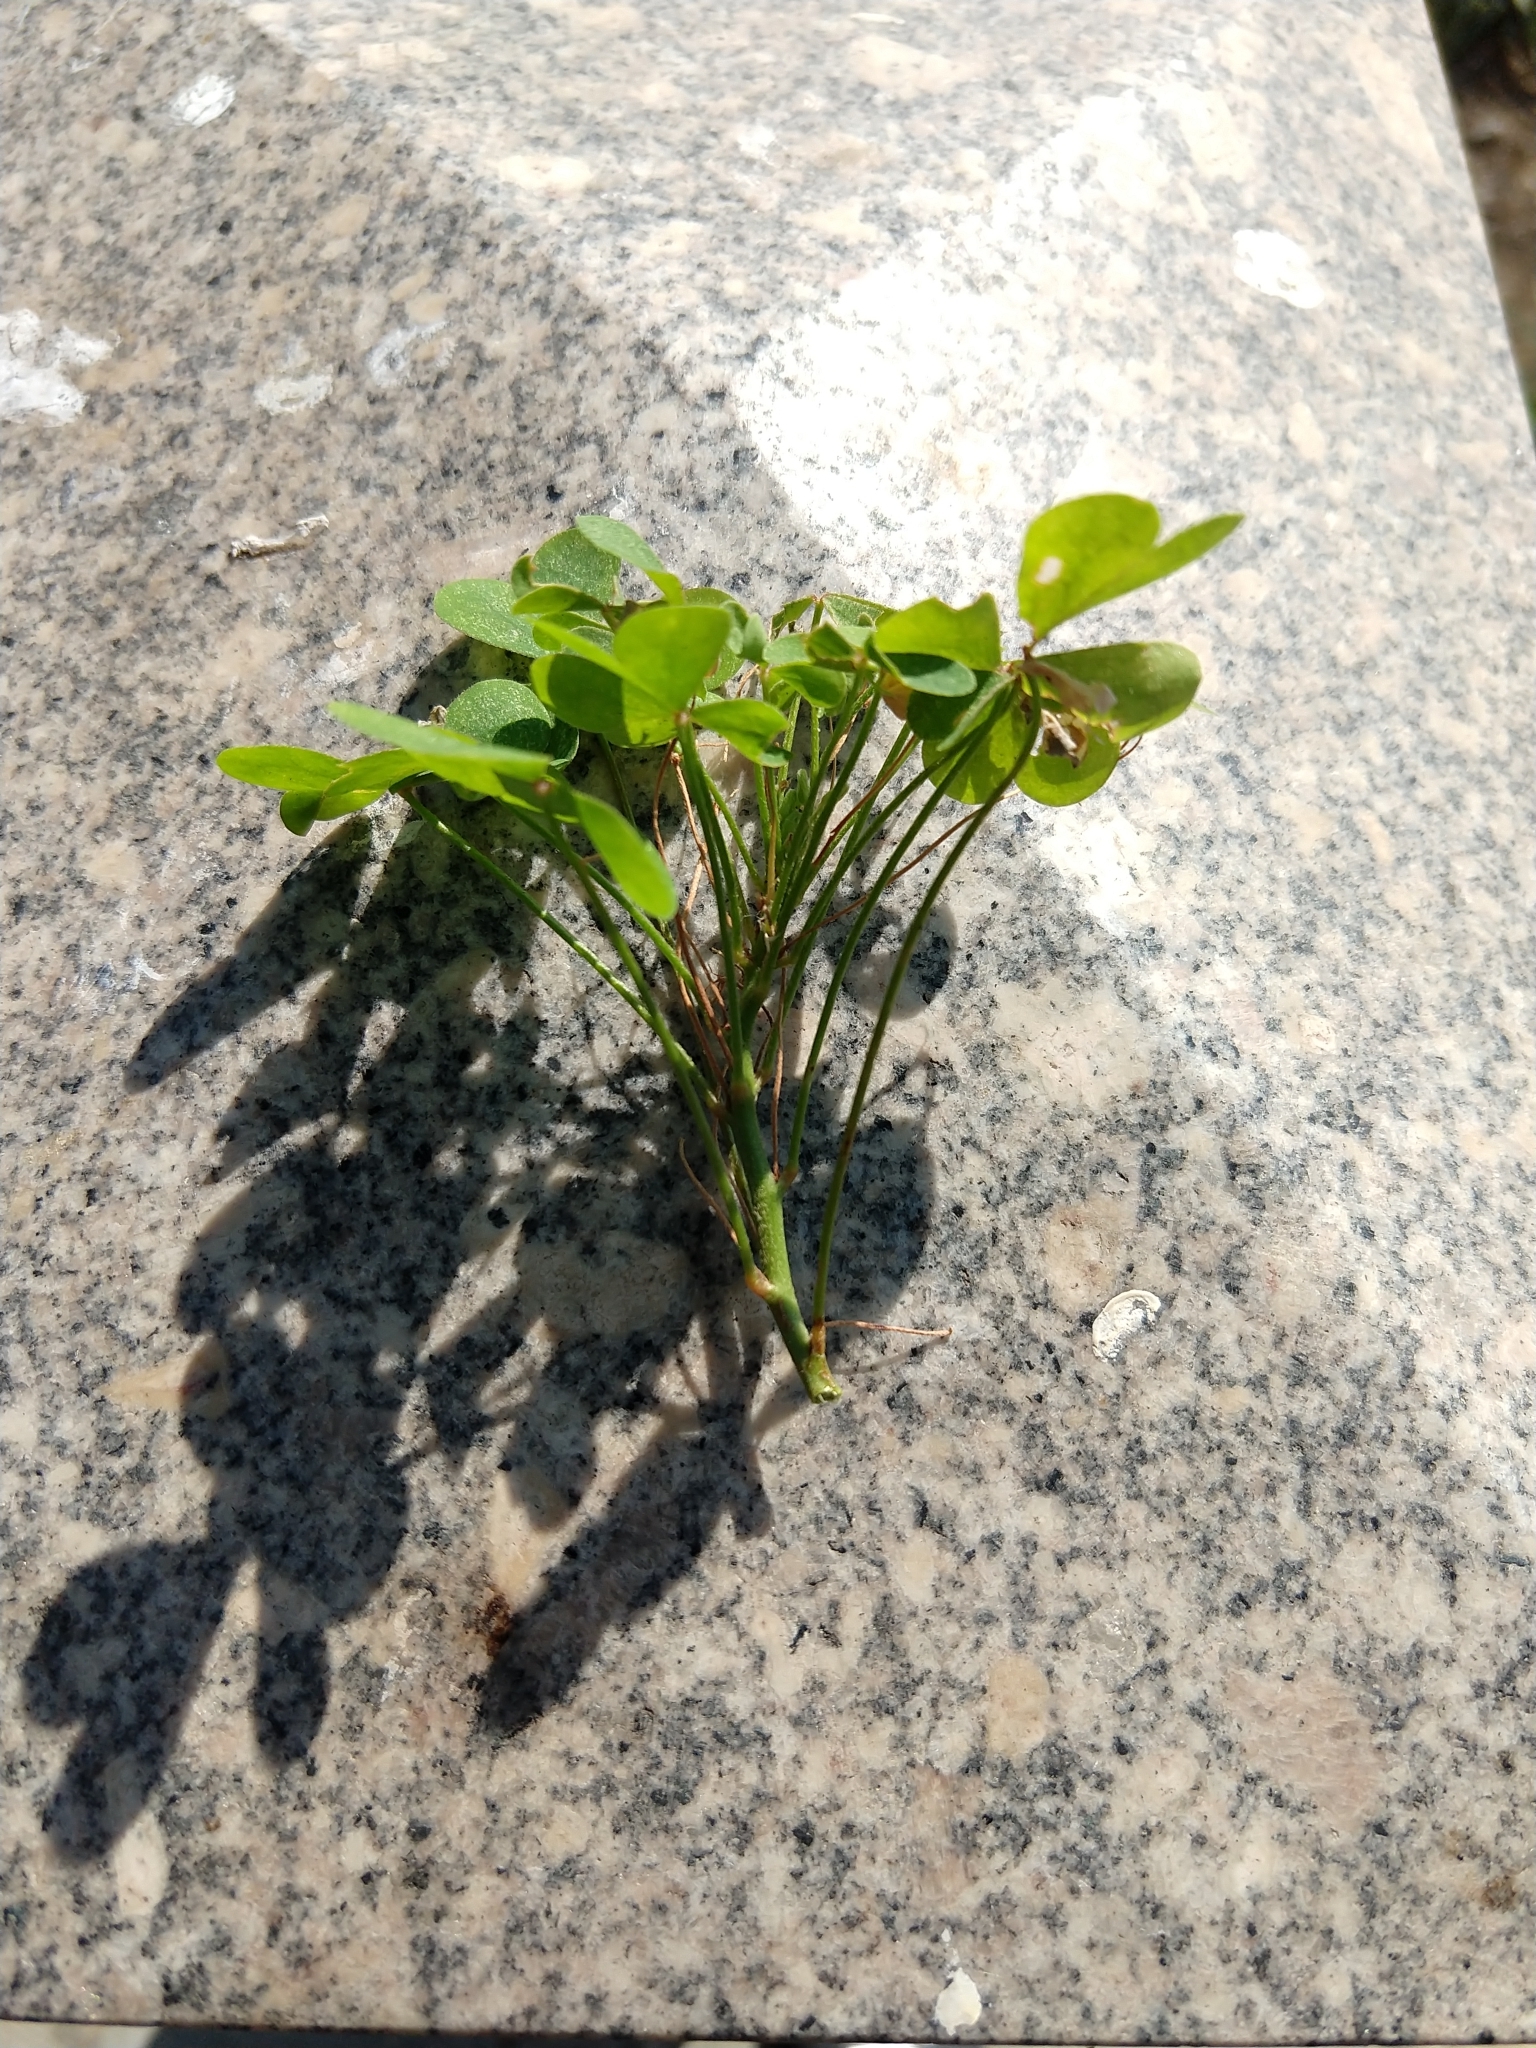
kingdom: Plantae
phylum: Tracheophyta
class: Magnoliopsida
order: Oxalidales
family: Oxalidaceae
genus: Oxalis
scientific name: Oxalis dillenii
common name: Sussex yellow-sorrel
